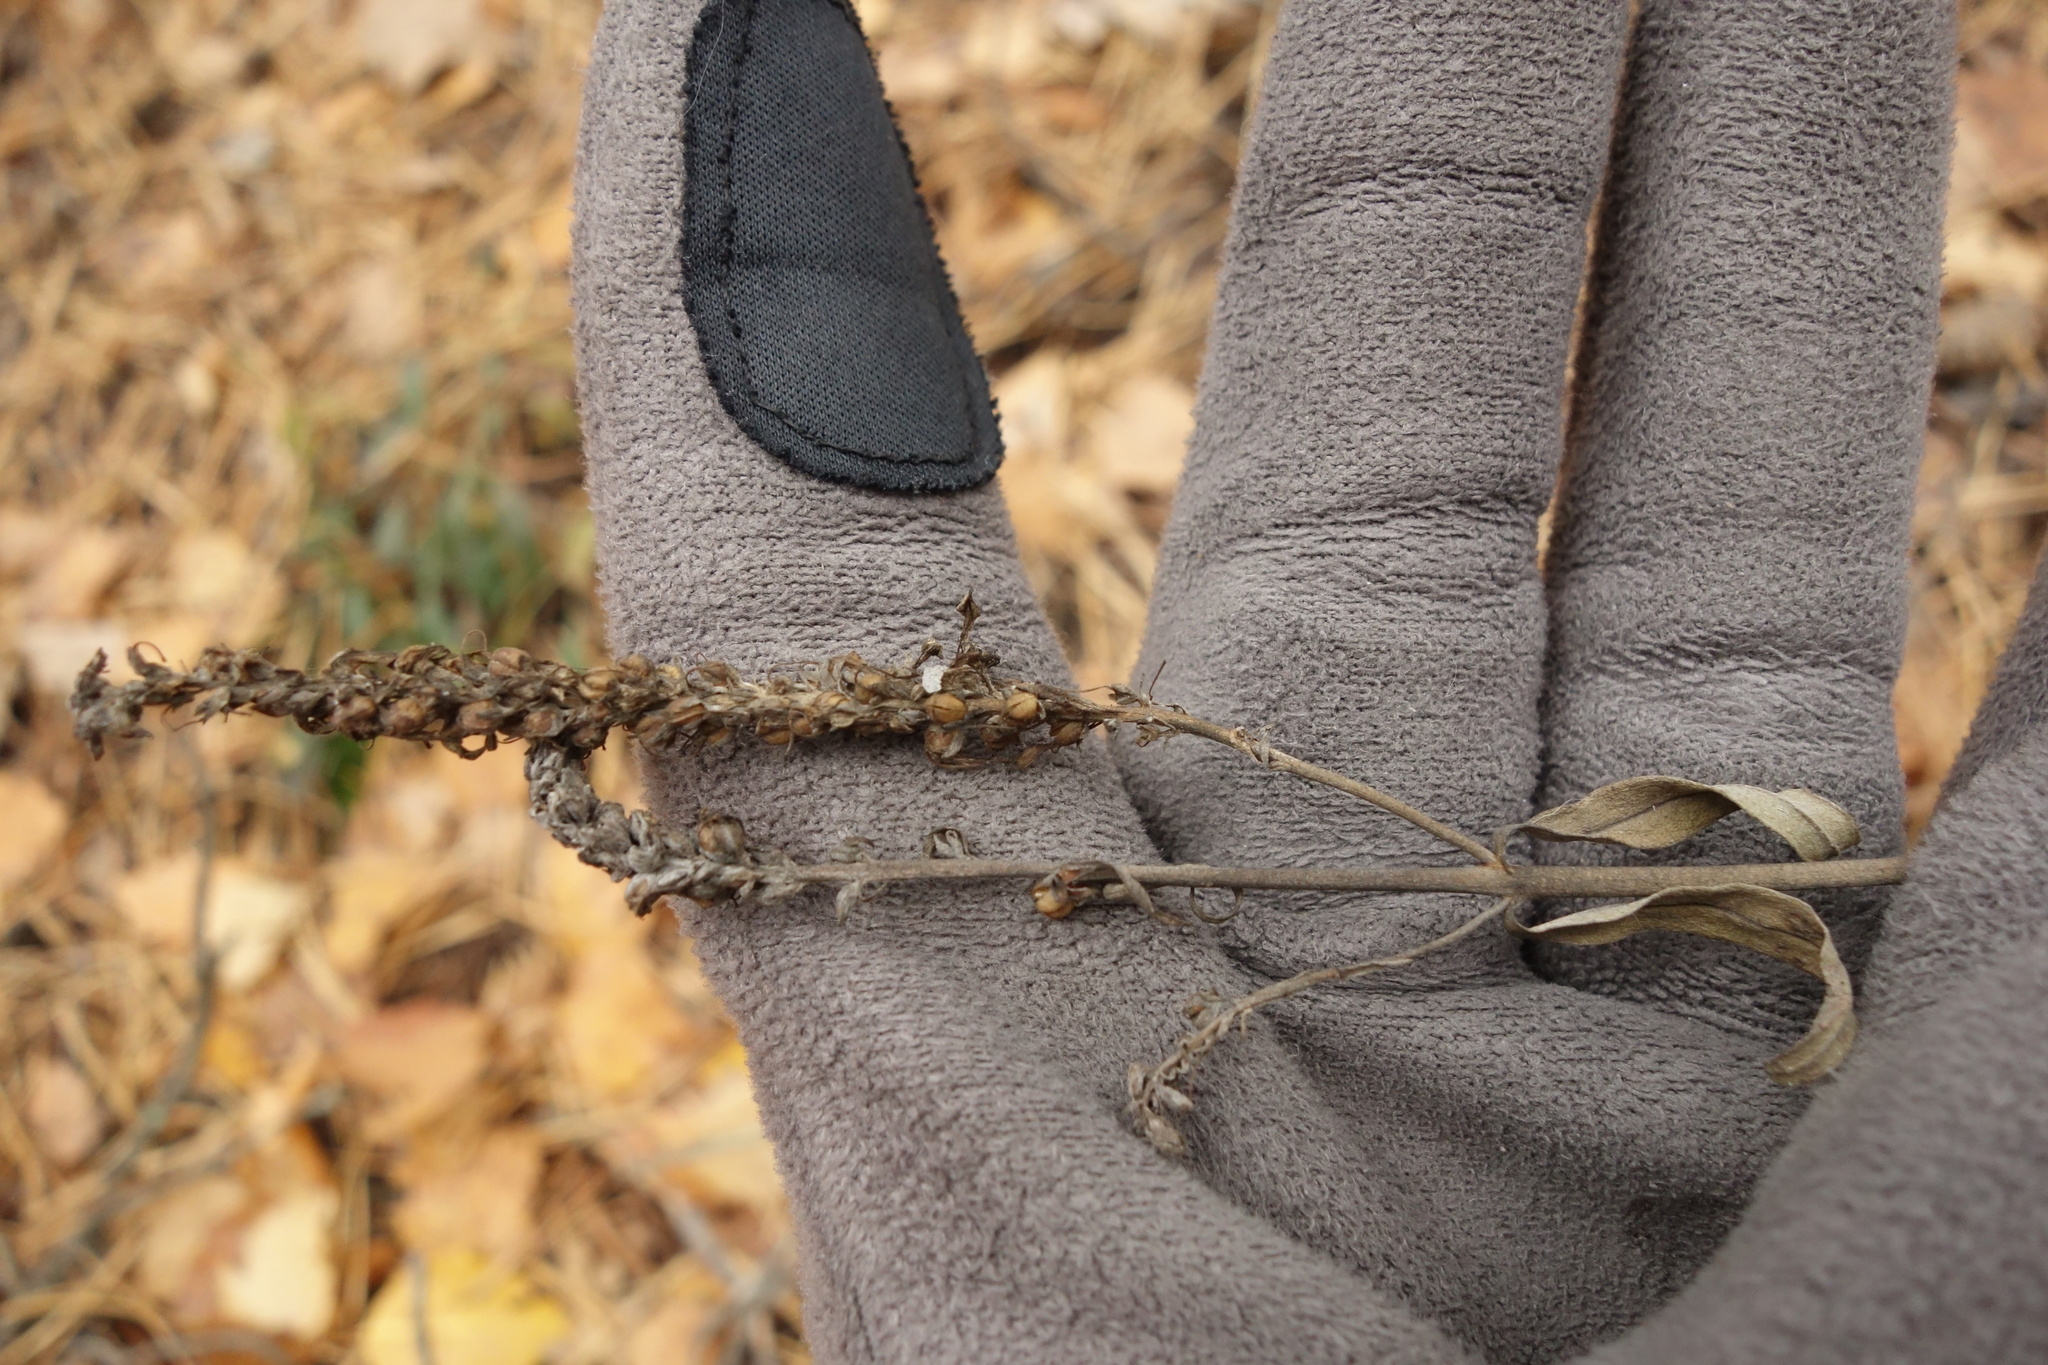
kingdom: Plantae
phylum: Tracheophyta
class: Magnoliopsida
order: Lamiales
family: Plantaginaceae
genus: Veronica
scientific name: Veronica incana
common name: Silver speedwell
